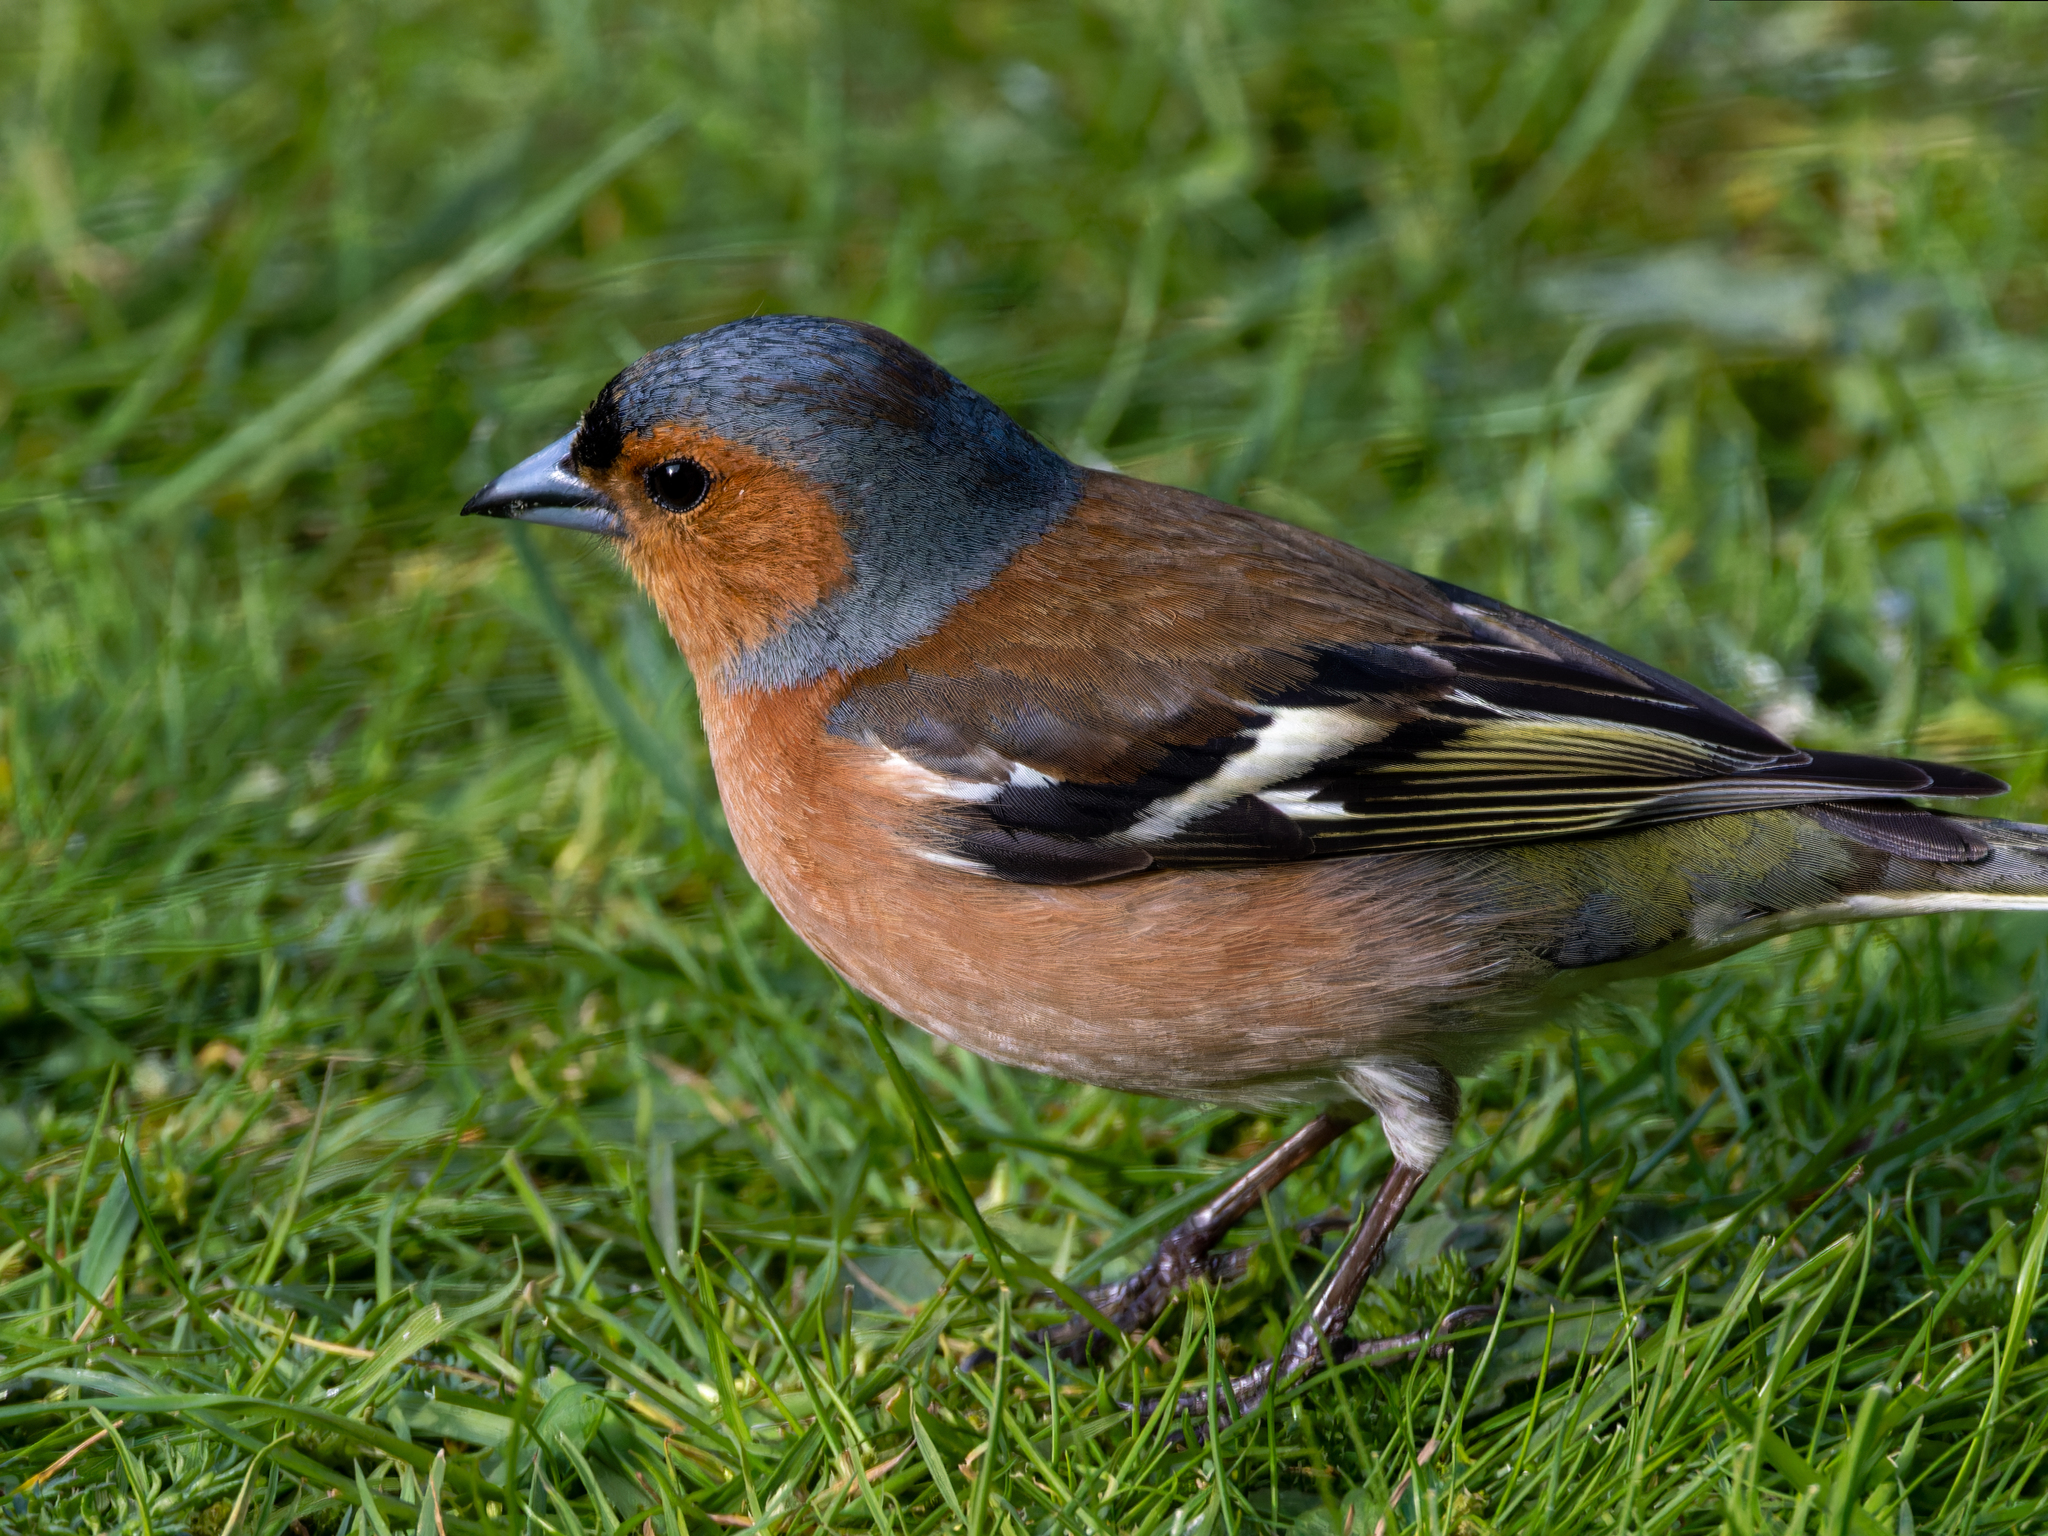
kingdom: Animalia
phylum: Chordata
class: Aves
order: Passeriformes
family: Fringillidae
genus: Fringilla
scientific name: Fringilla coelebs
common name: Common chaffinch
